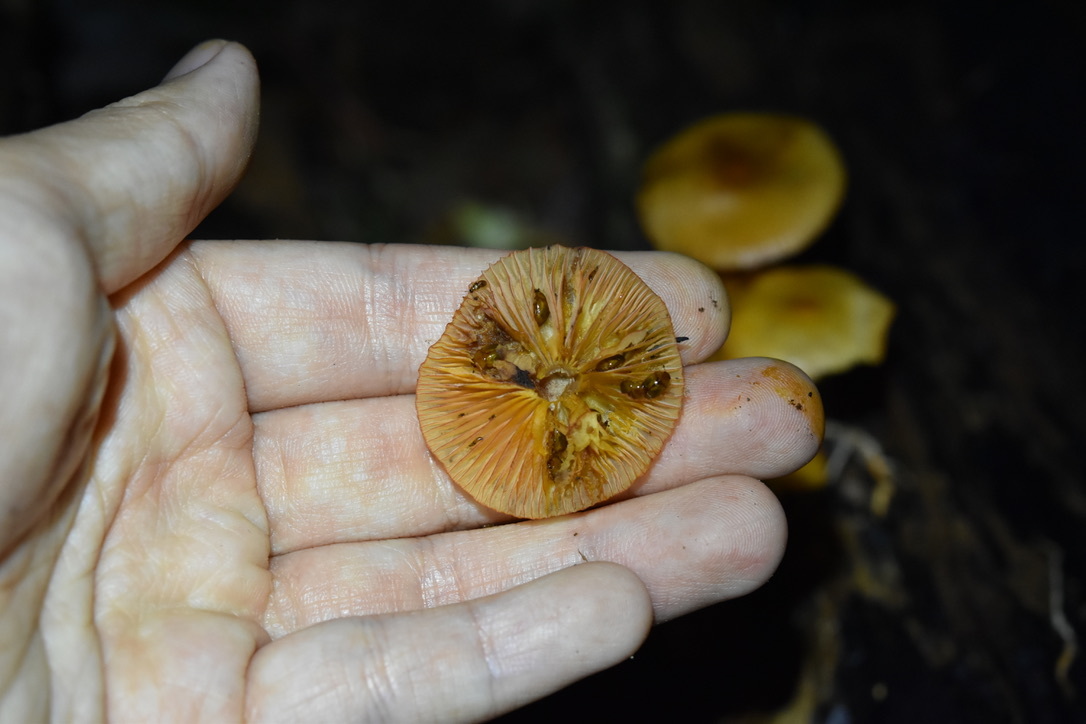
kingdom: Fungi
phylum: Basidiomycota
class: Agaricomycetes
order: Agaricales
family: Mycenaceae
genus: Mycena
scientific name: Mycena leaiana
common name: Orange mycena
